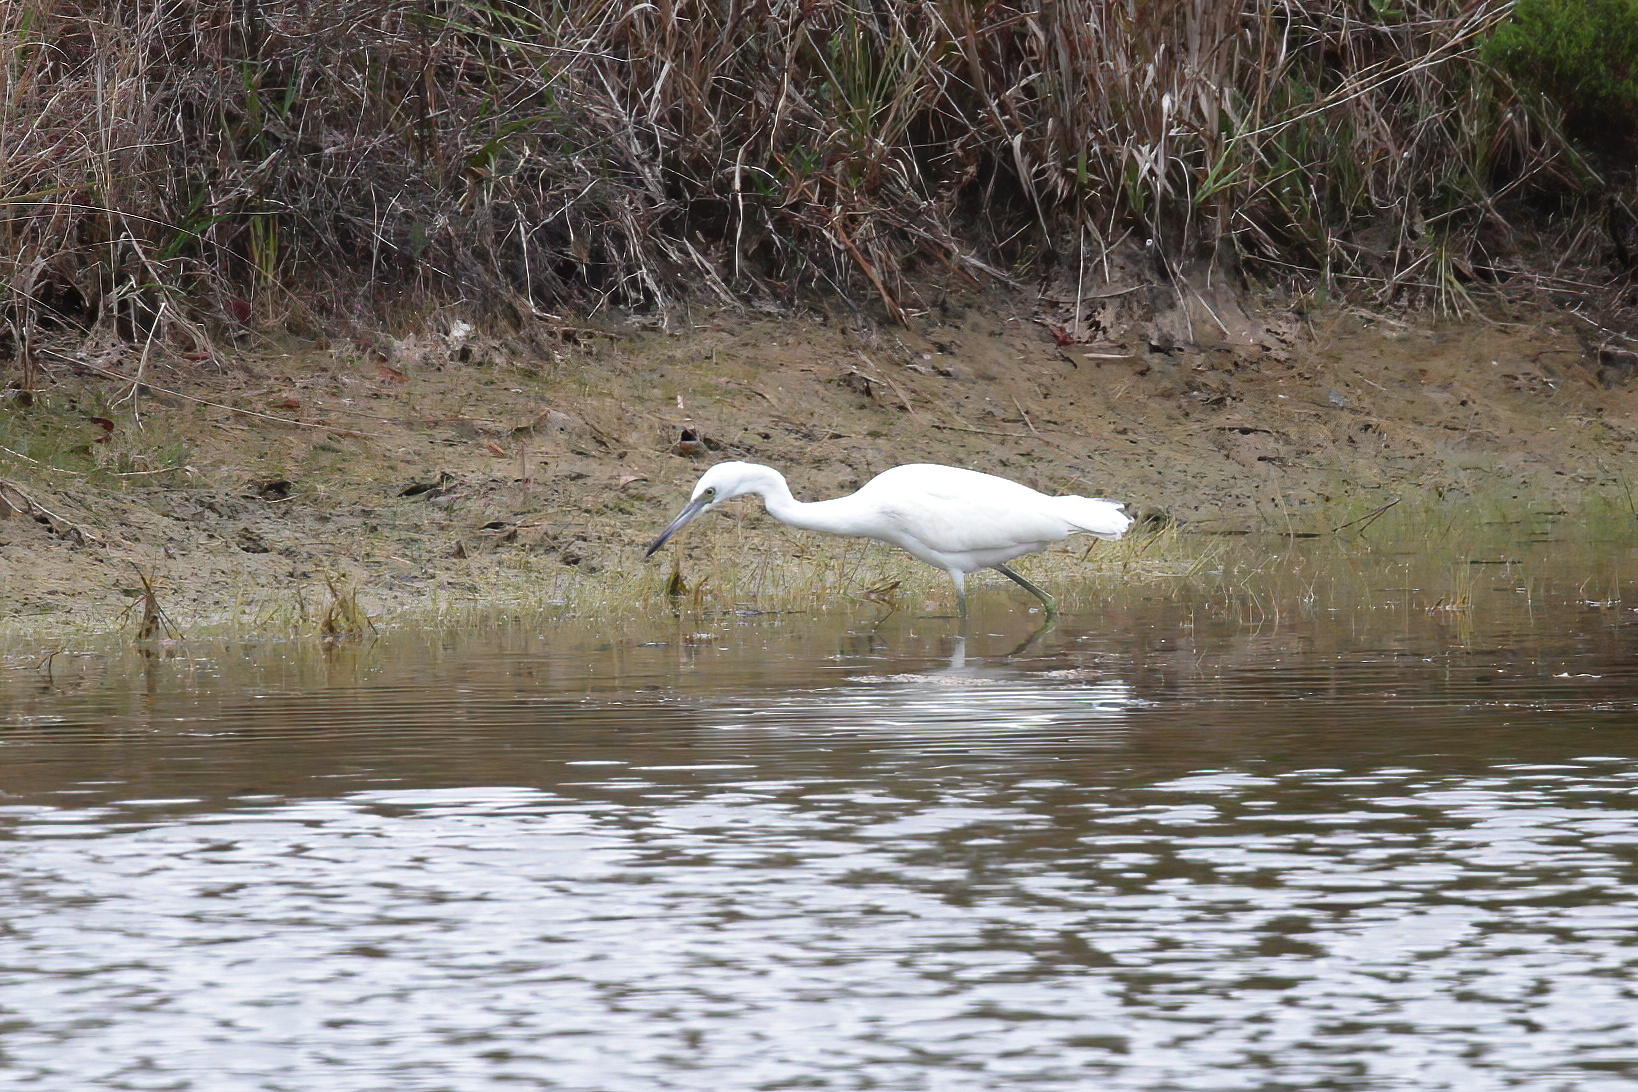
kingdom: Animalia
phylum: Chordata
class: Aves
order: Pelecaniformes
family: Ardeidae
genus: Egretta
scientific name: Egretta caerulea
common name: Little blue heron
